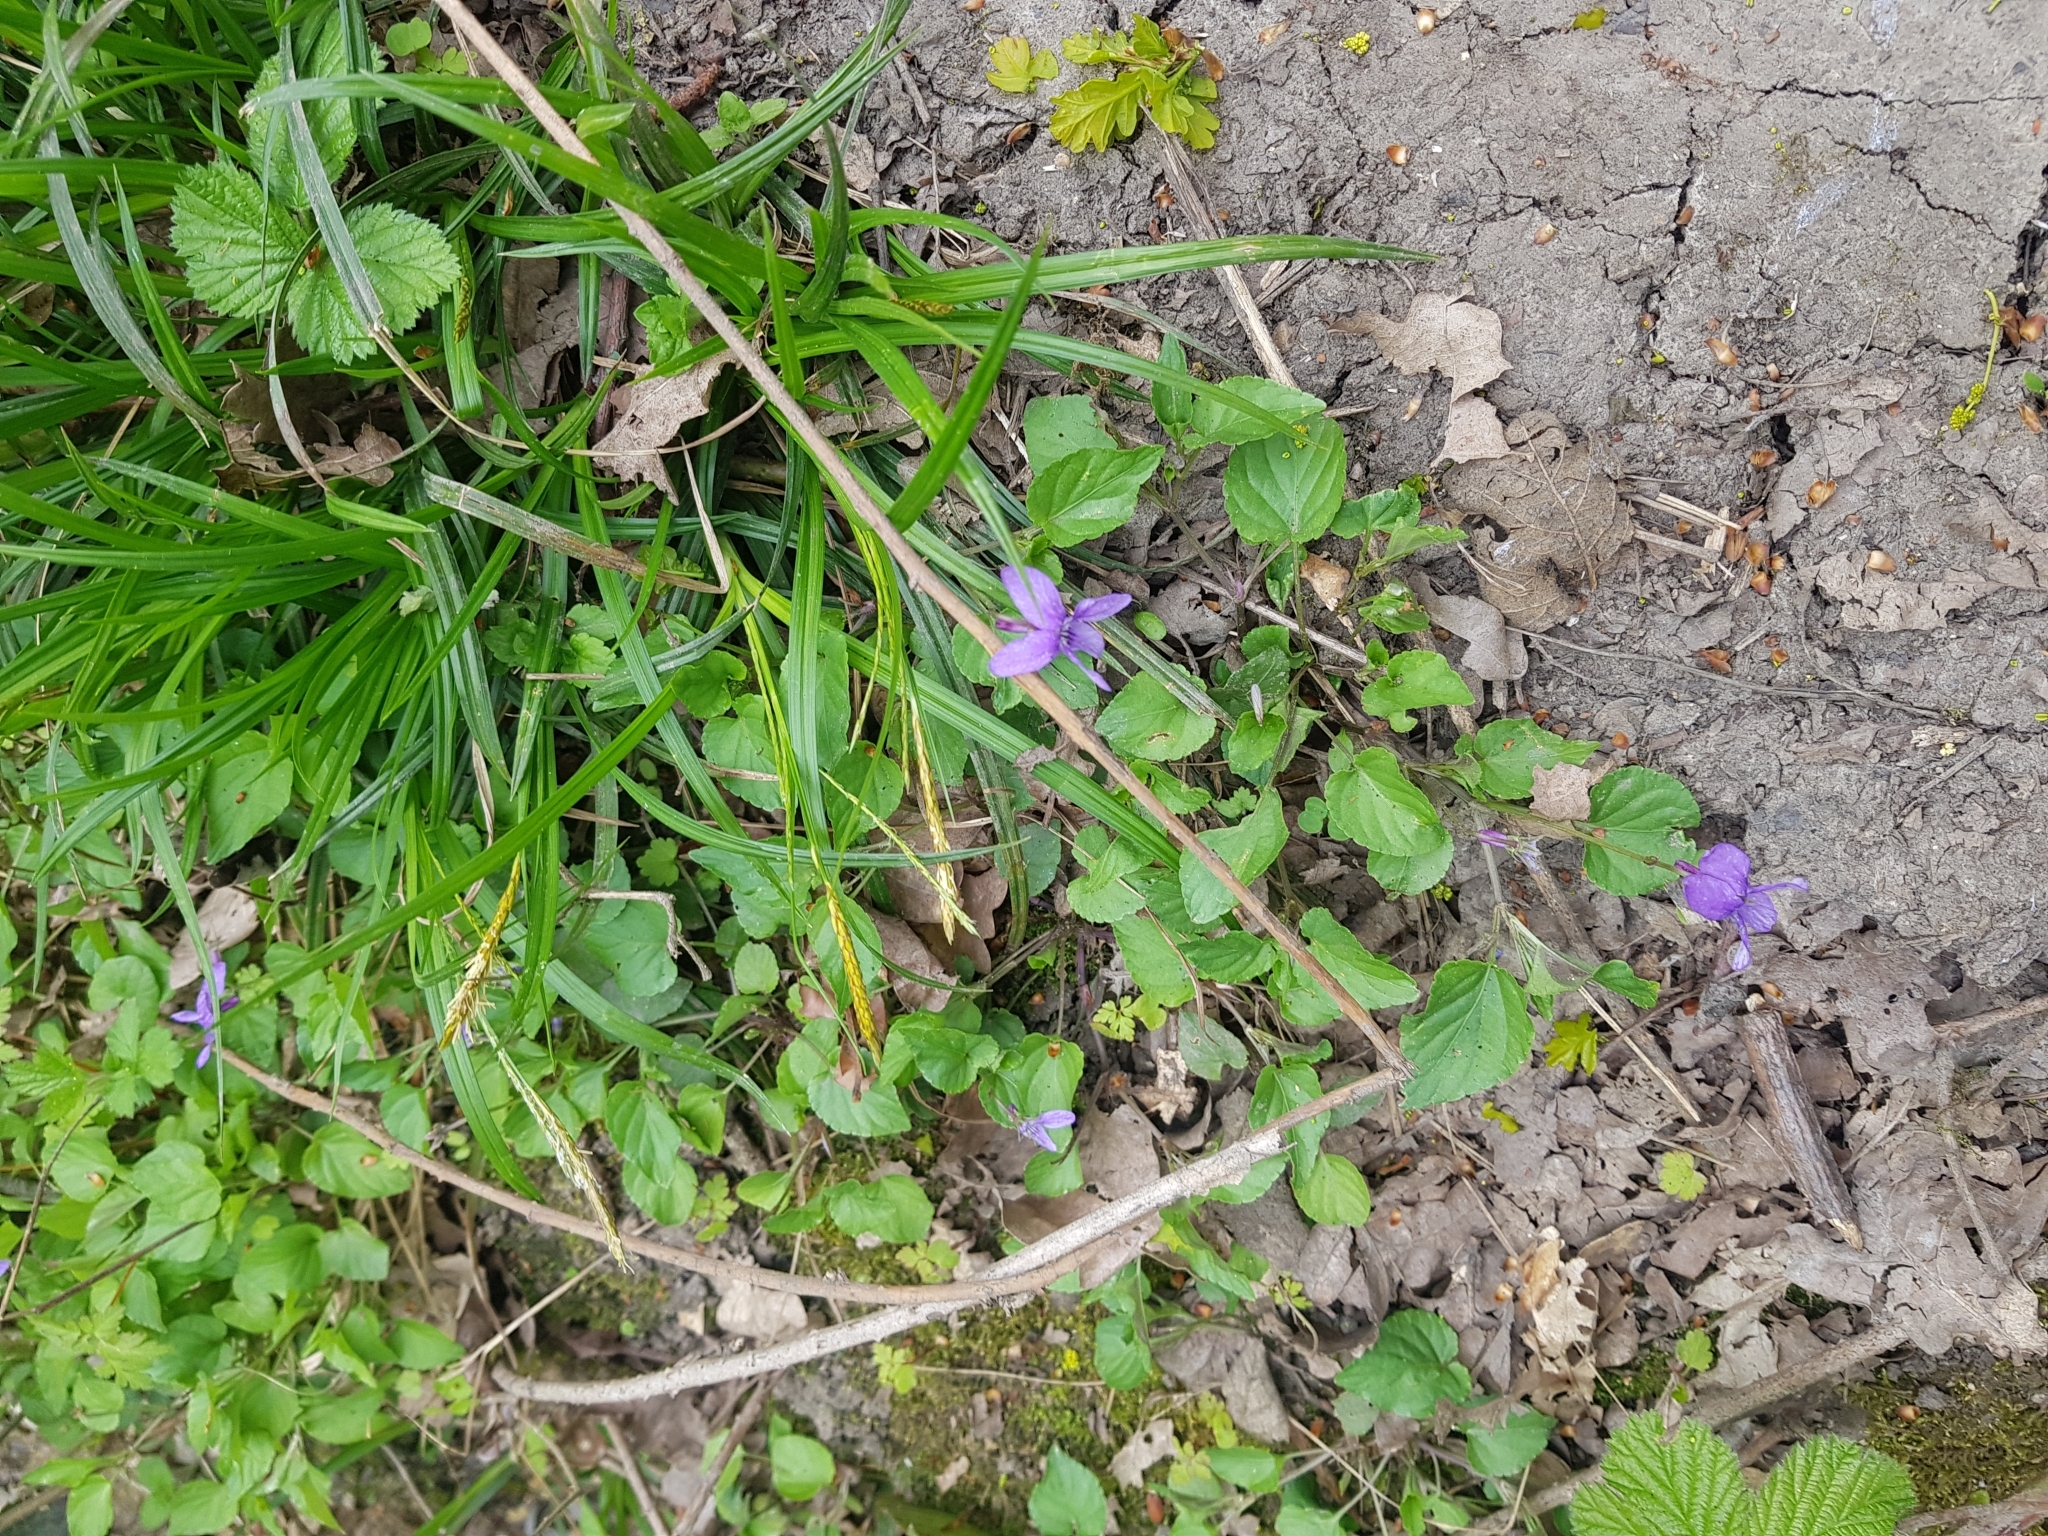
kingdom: Plantae
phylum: Tracheophyta
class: Magnoliopsida
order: Malpighiales
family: Violaceae
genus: Viola
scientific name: Viola reichenbachiana
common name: Early dog-violet
